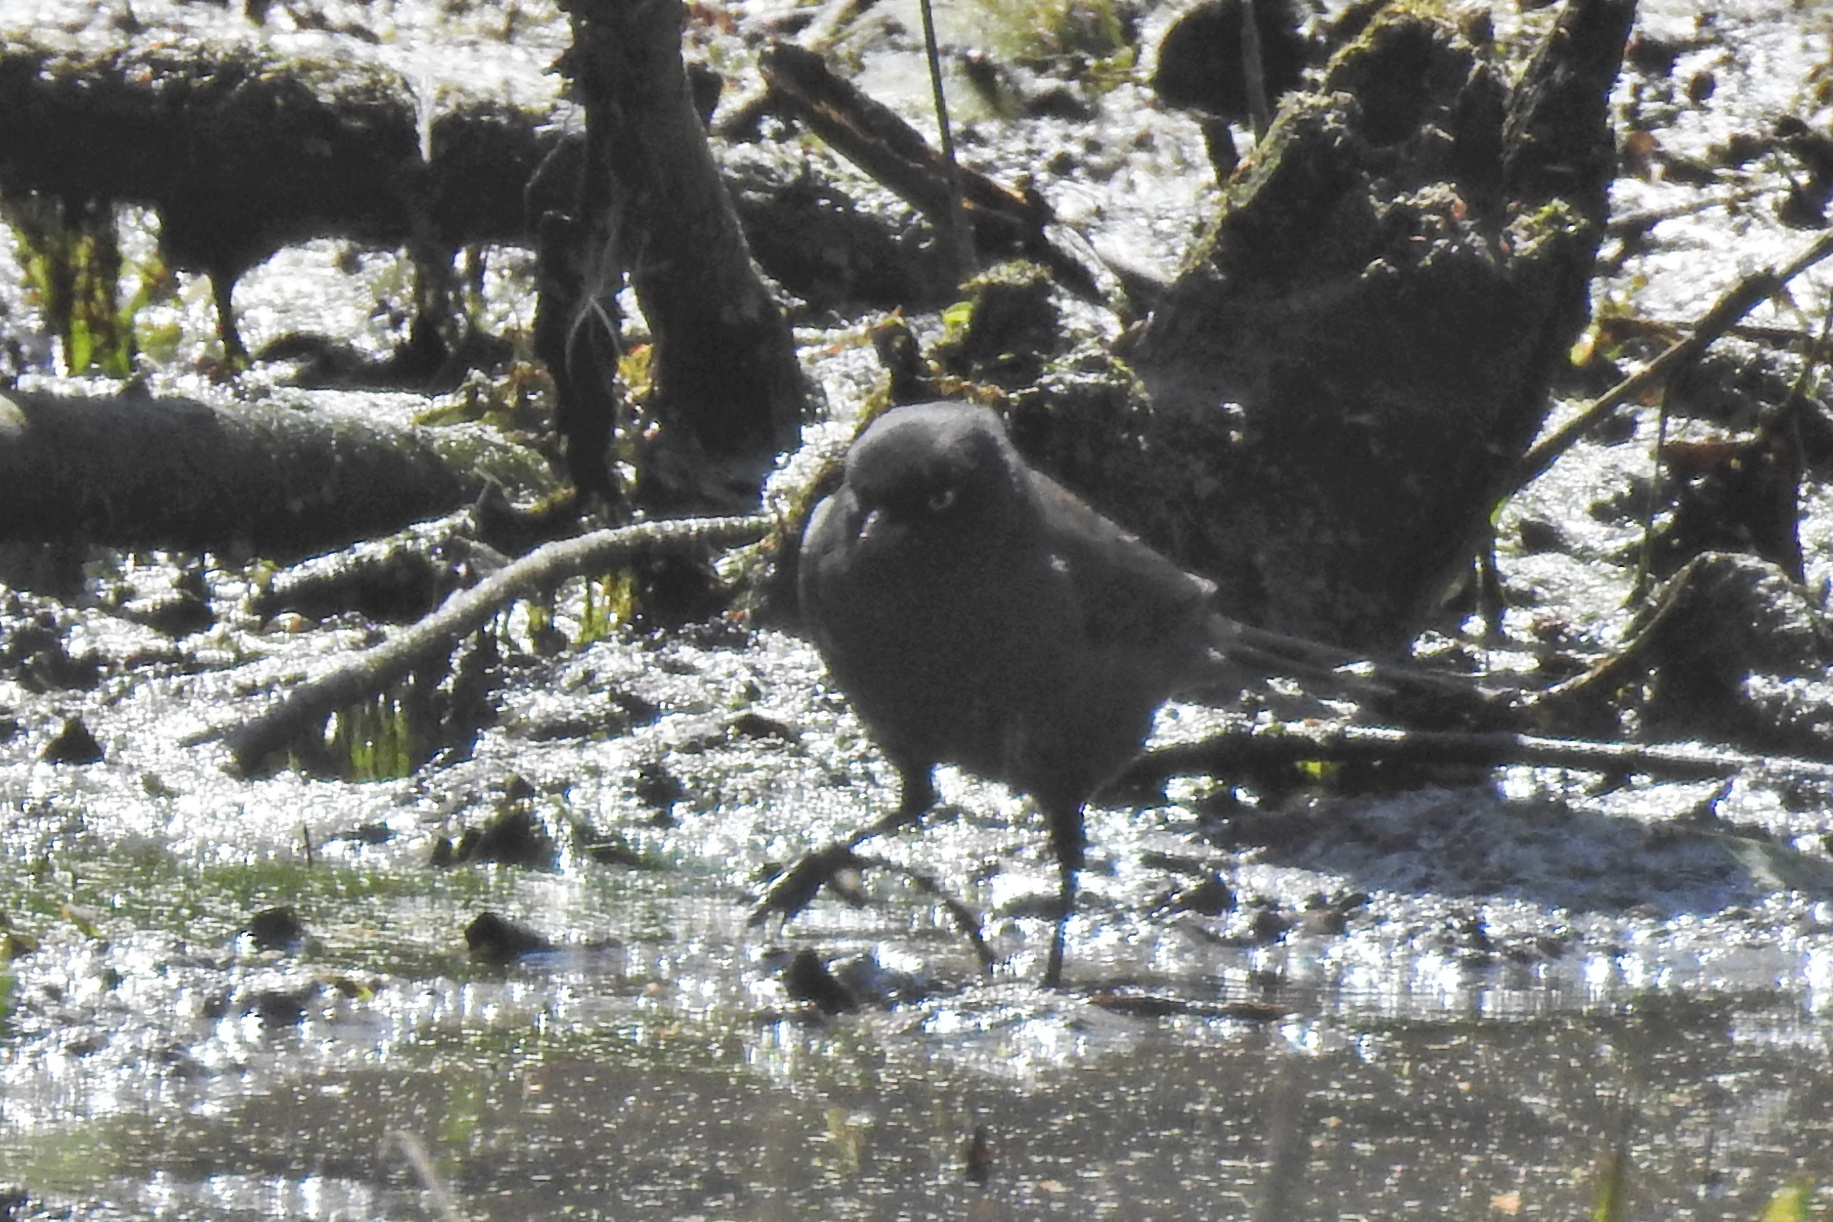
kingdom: Animalia
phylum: Chordata
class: Aves
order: Passeriformes
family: Icteridae
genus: Euphagus
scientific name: Euphagus carolinus
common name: Rusty blackbird
